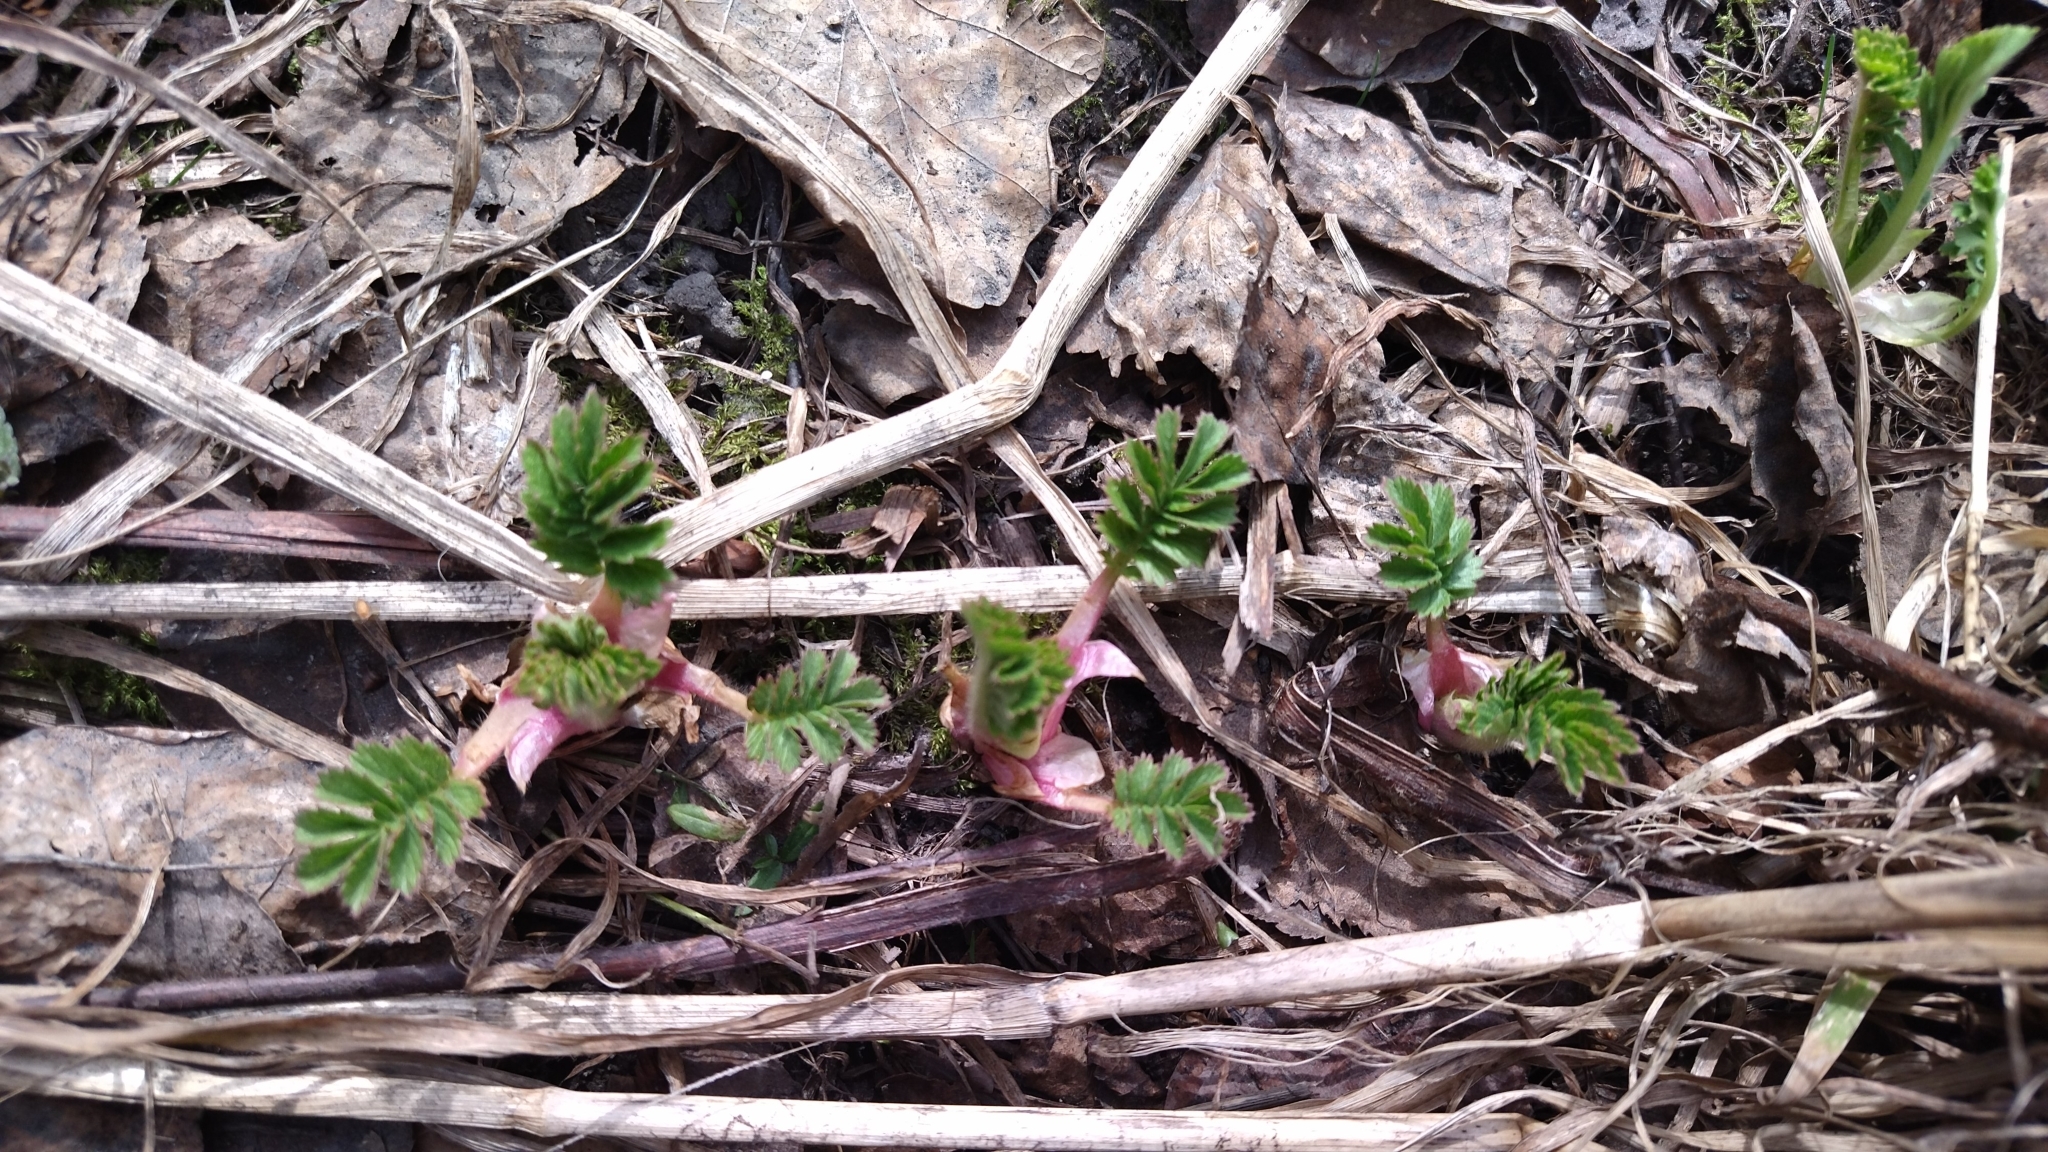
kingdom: Plantae
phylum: Tracheophyta
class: Magnoliopsida
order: Rosales
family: Rosaceae
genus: Agrimonia
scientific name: Agrimonia pilosa
